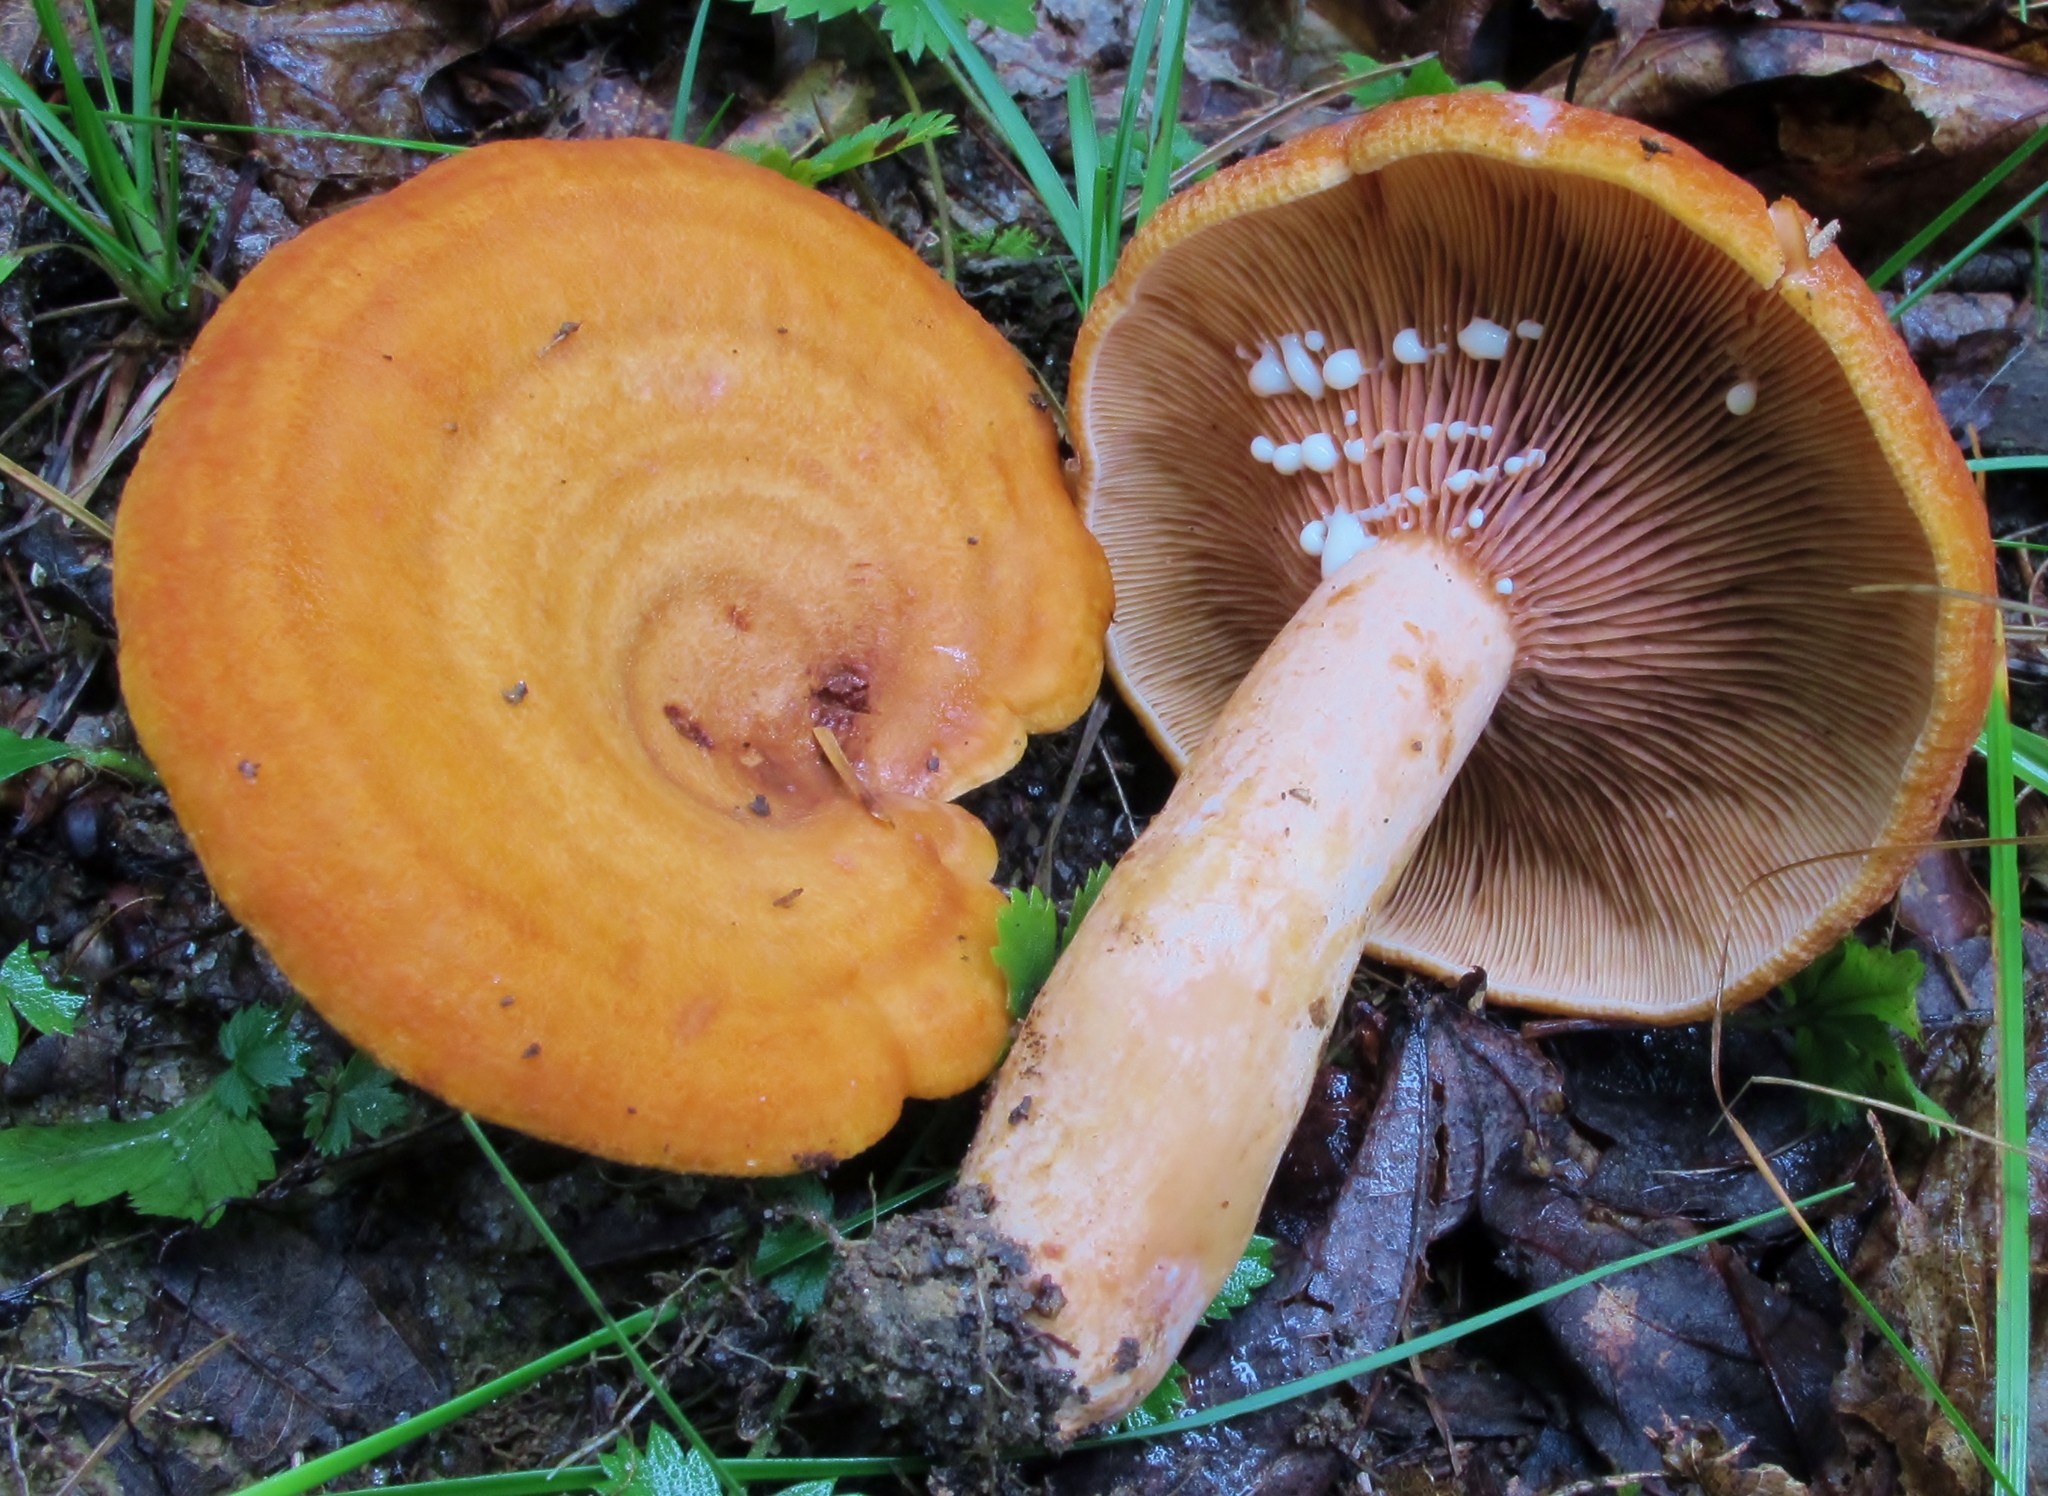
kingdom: Fungi
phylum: Basidiomycota
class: Agaricomycetes
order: Russulales
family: Russulaceae
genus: Lactarius
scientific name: Lactarius peckii
